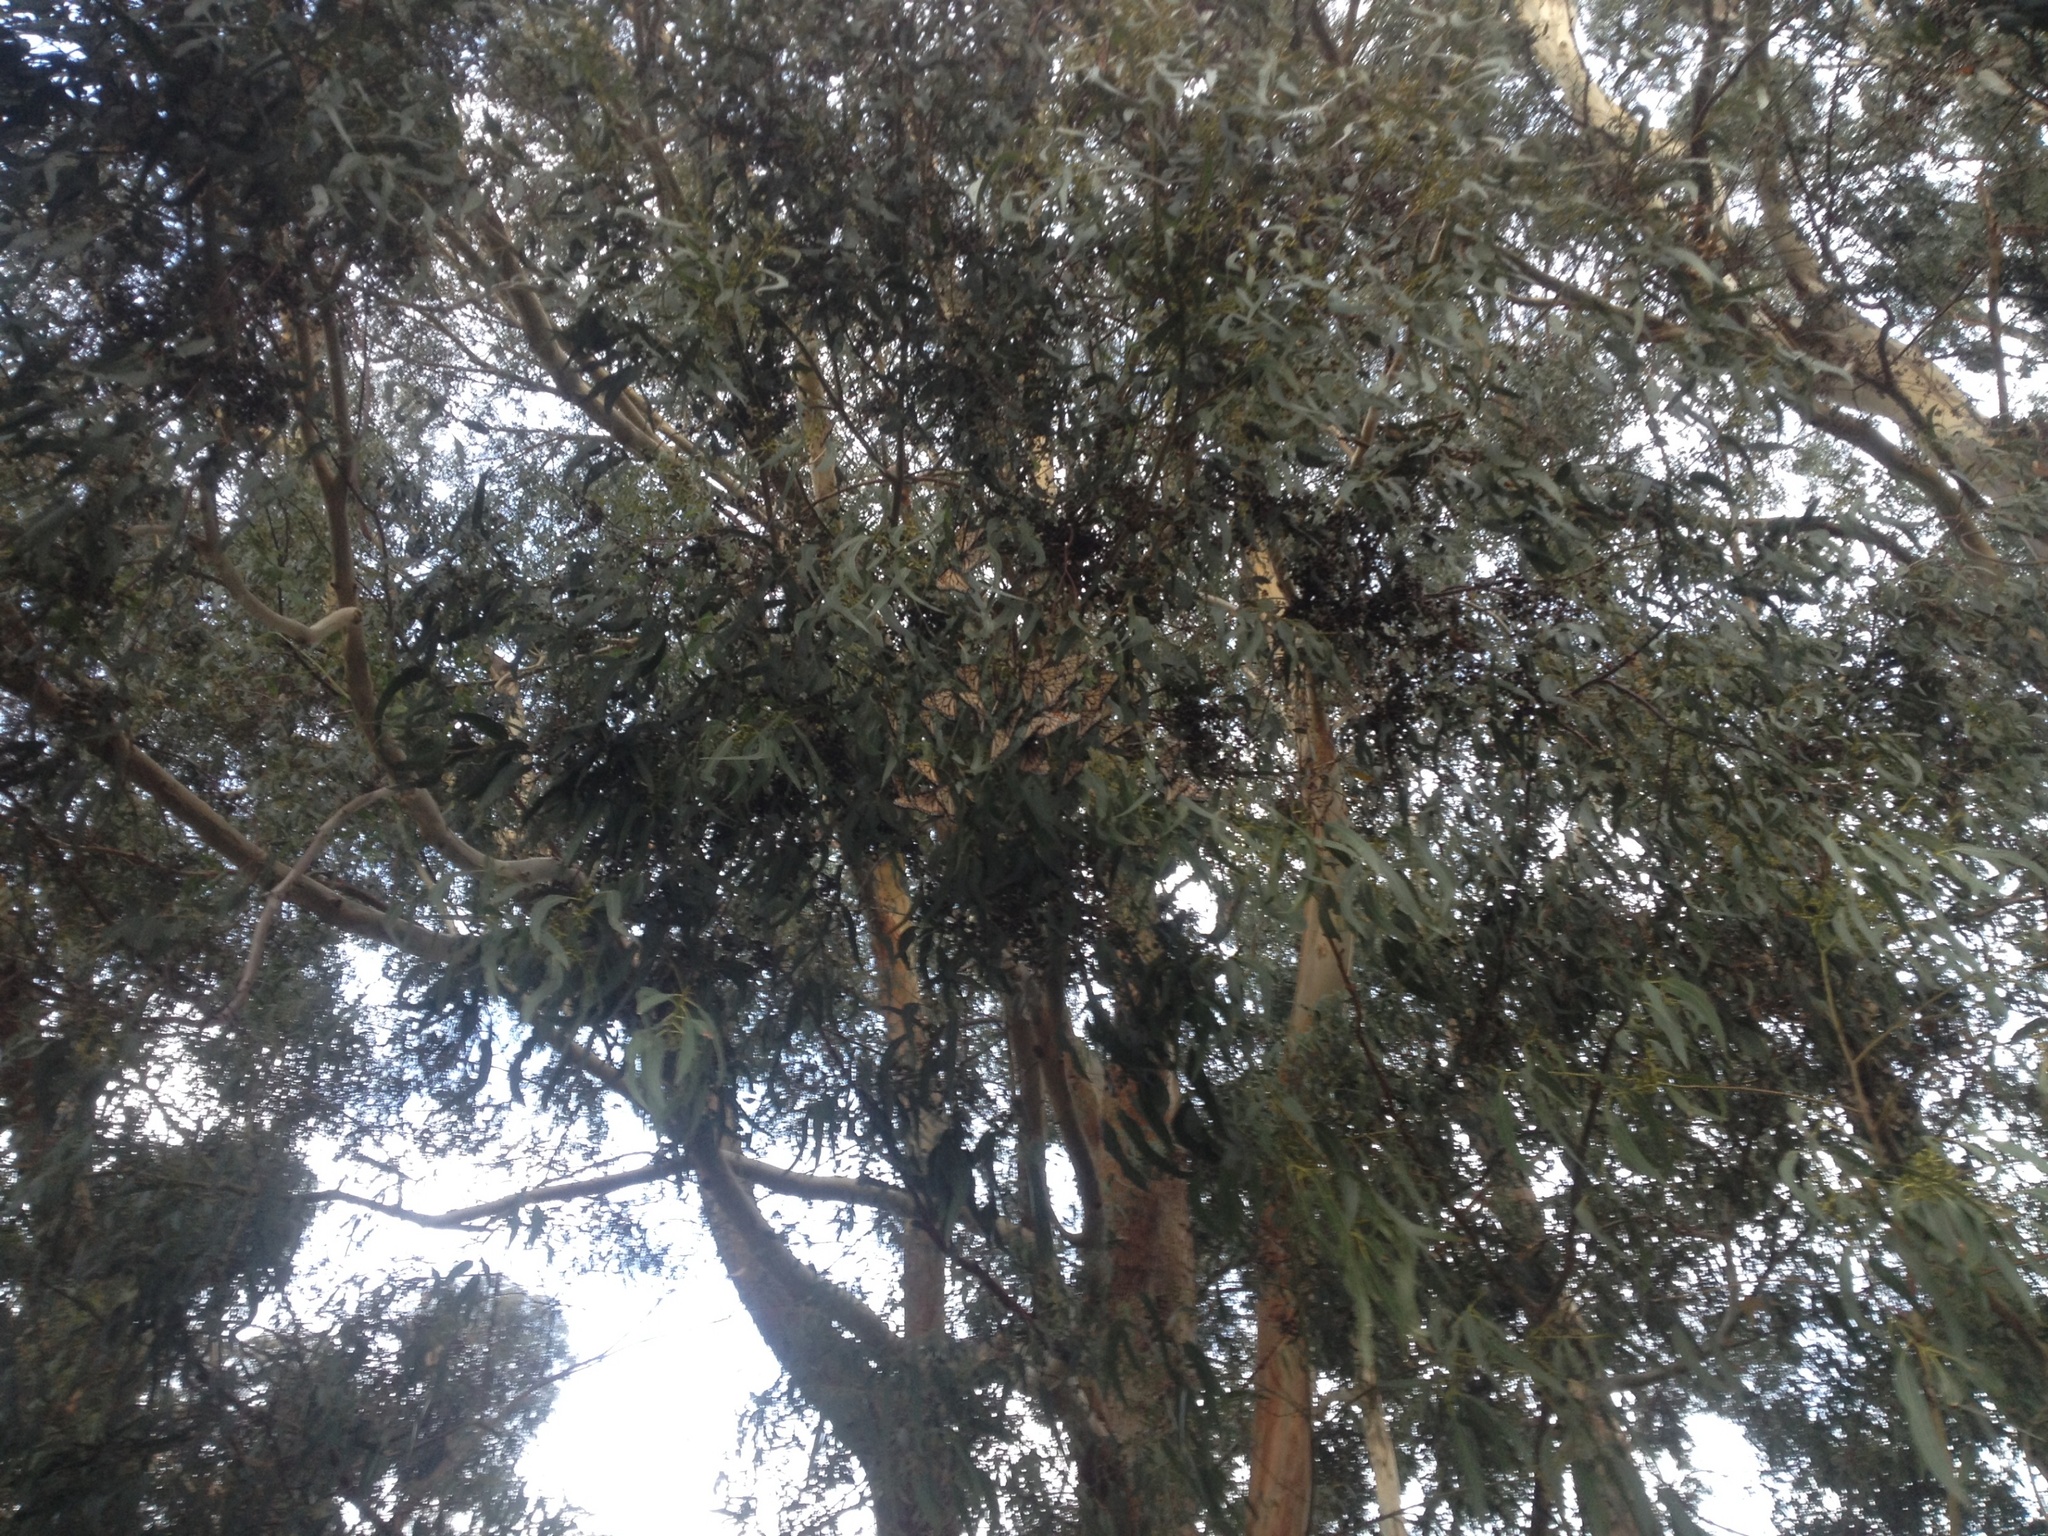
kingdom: Animalia
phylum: Arthropoda
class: Insecta
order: Lepidoptera
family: Nymphalidae
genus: Danaus
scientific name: Danaus plexippus
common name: Monarch
